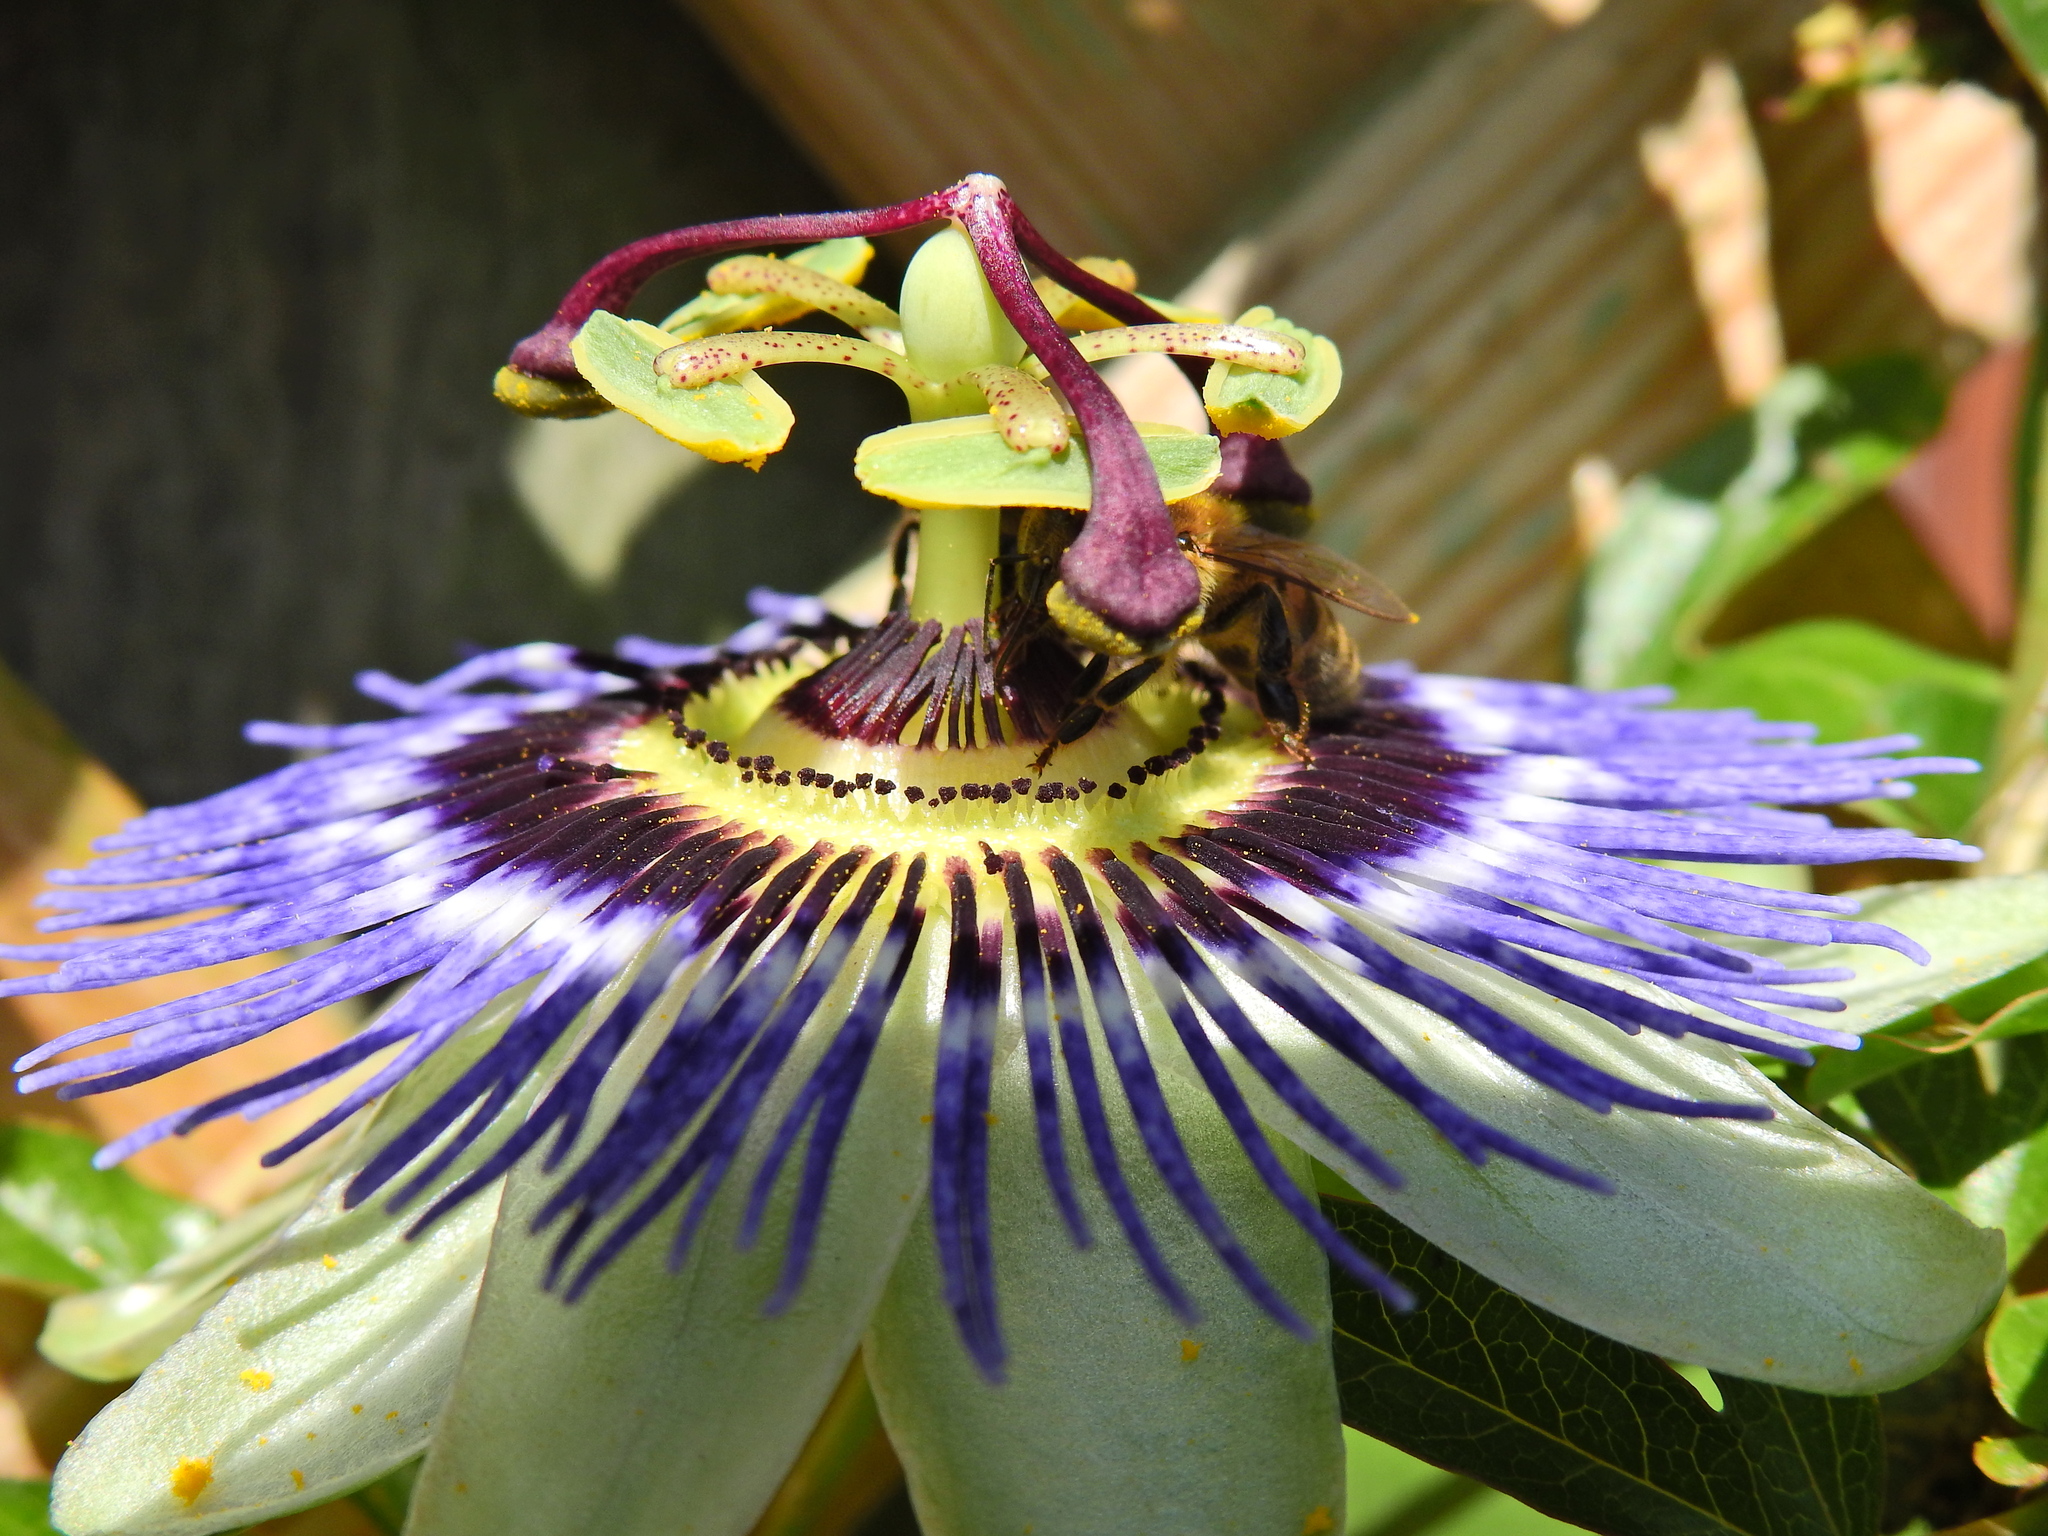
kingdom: Animalia
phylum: Arthropoda
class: Insecta
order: Hymenoptera
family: Apidae
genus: Apis
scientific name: Apis mellifera
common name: Honey bee
